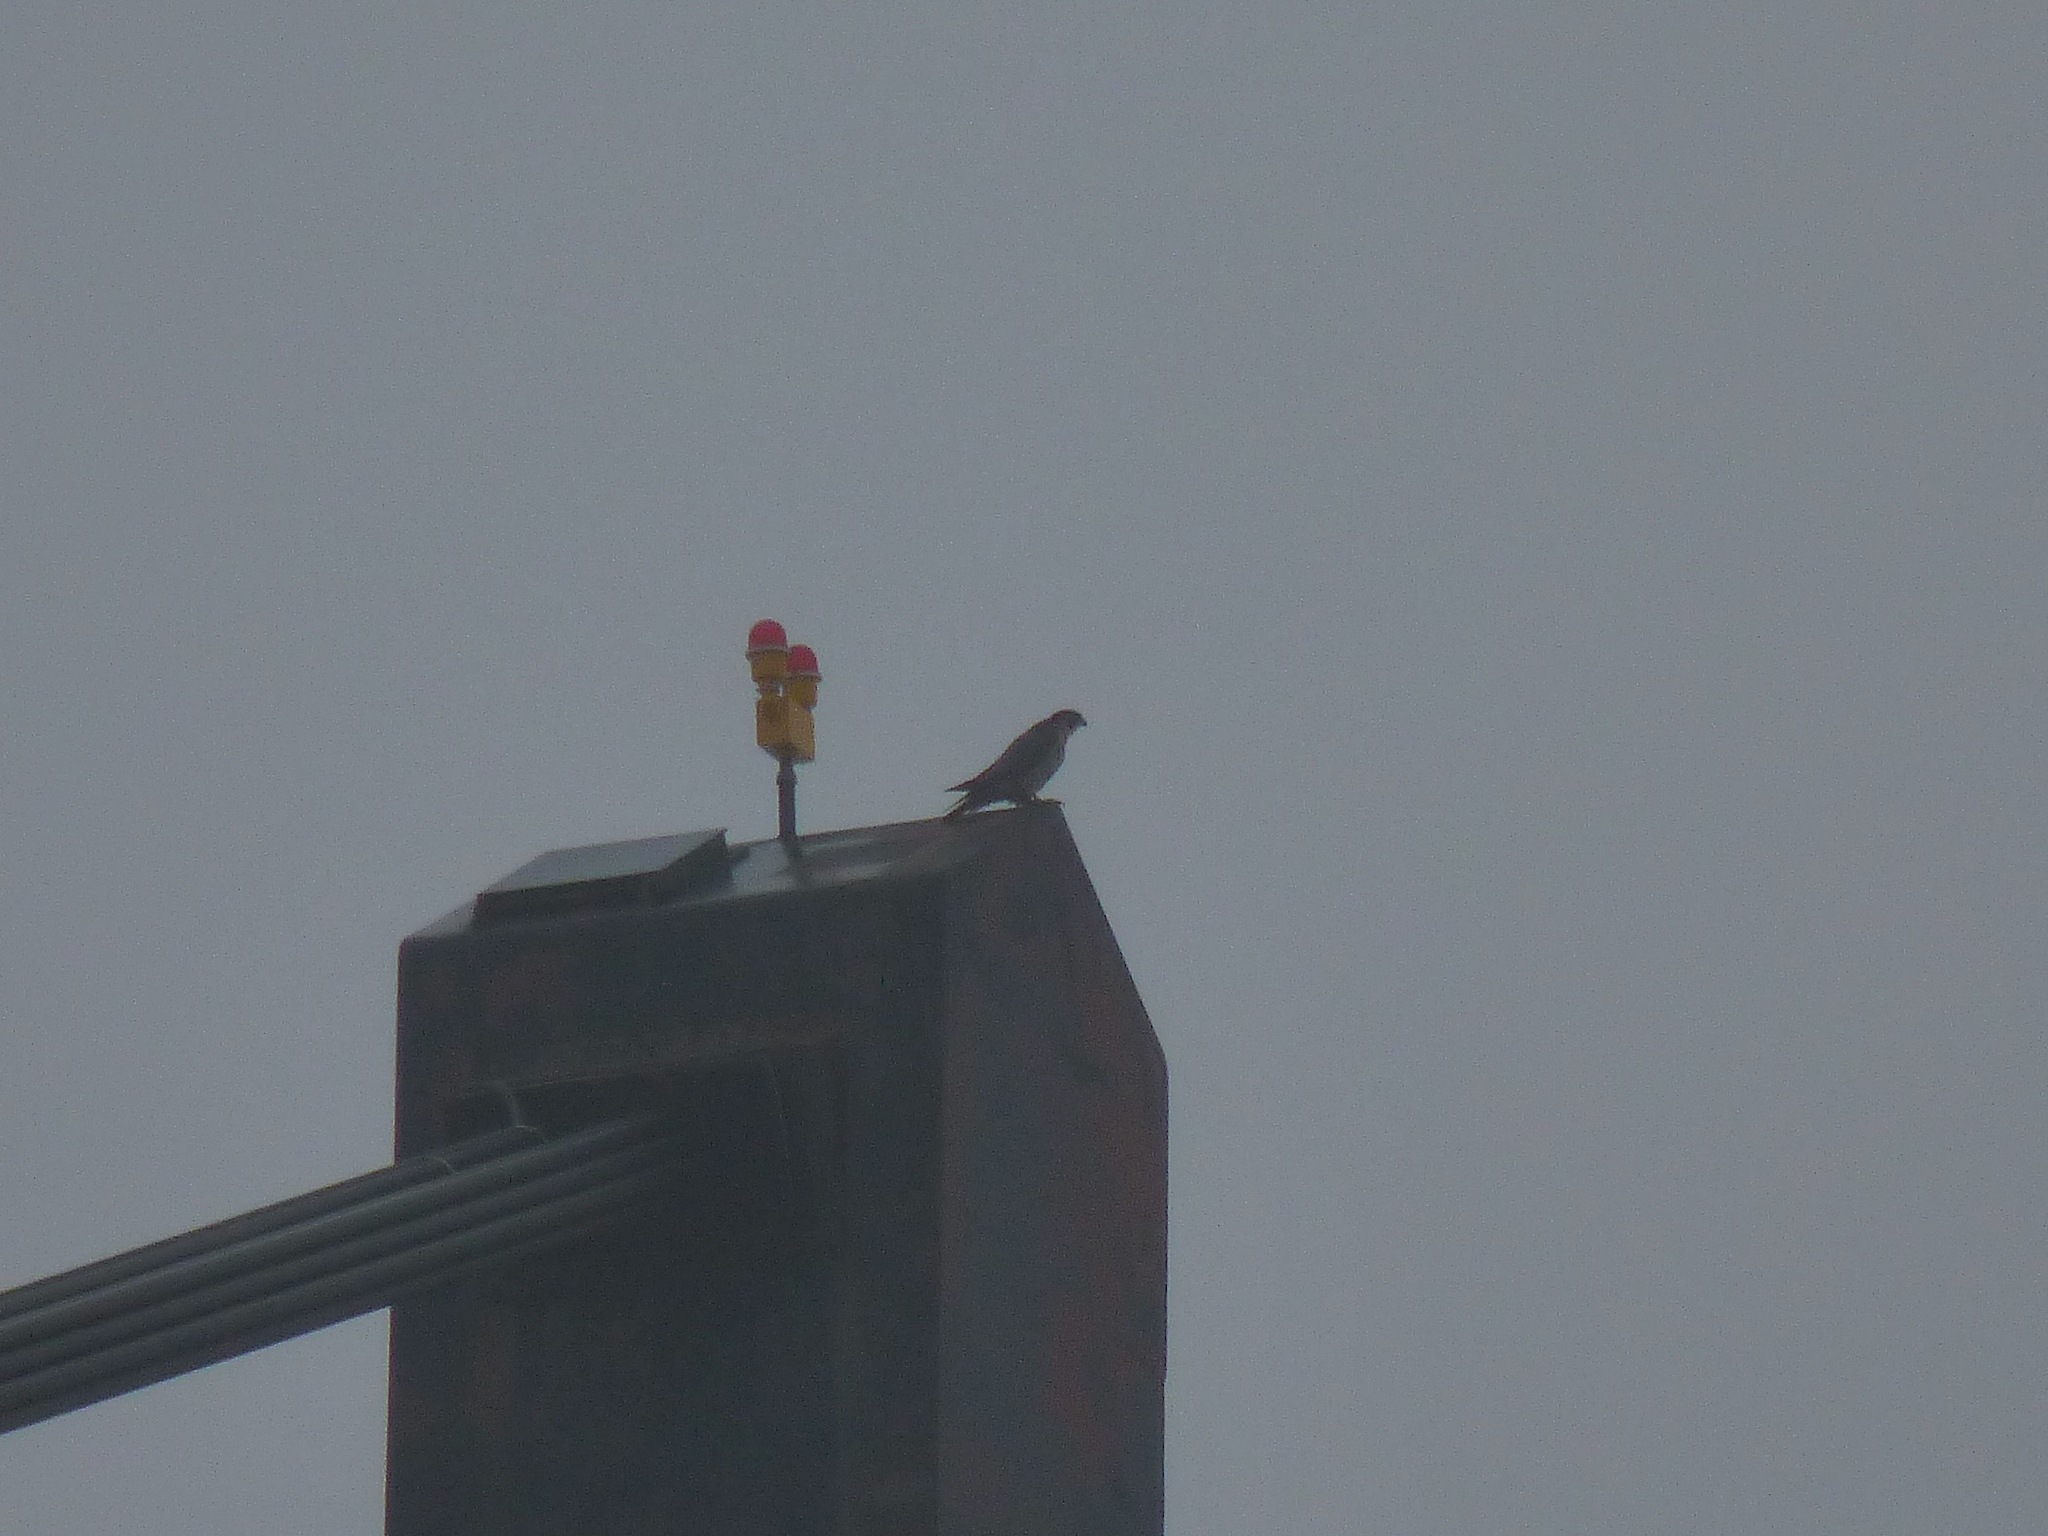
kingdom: Animalia
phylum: Chordata
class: Aves
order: Falconiformes
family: Falconidae
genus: Falco
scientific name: Falco peregrinus
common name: Peregrine falcon
